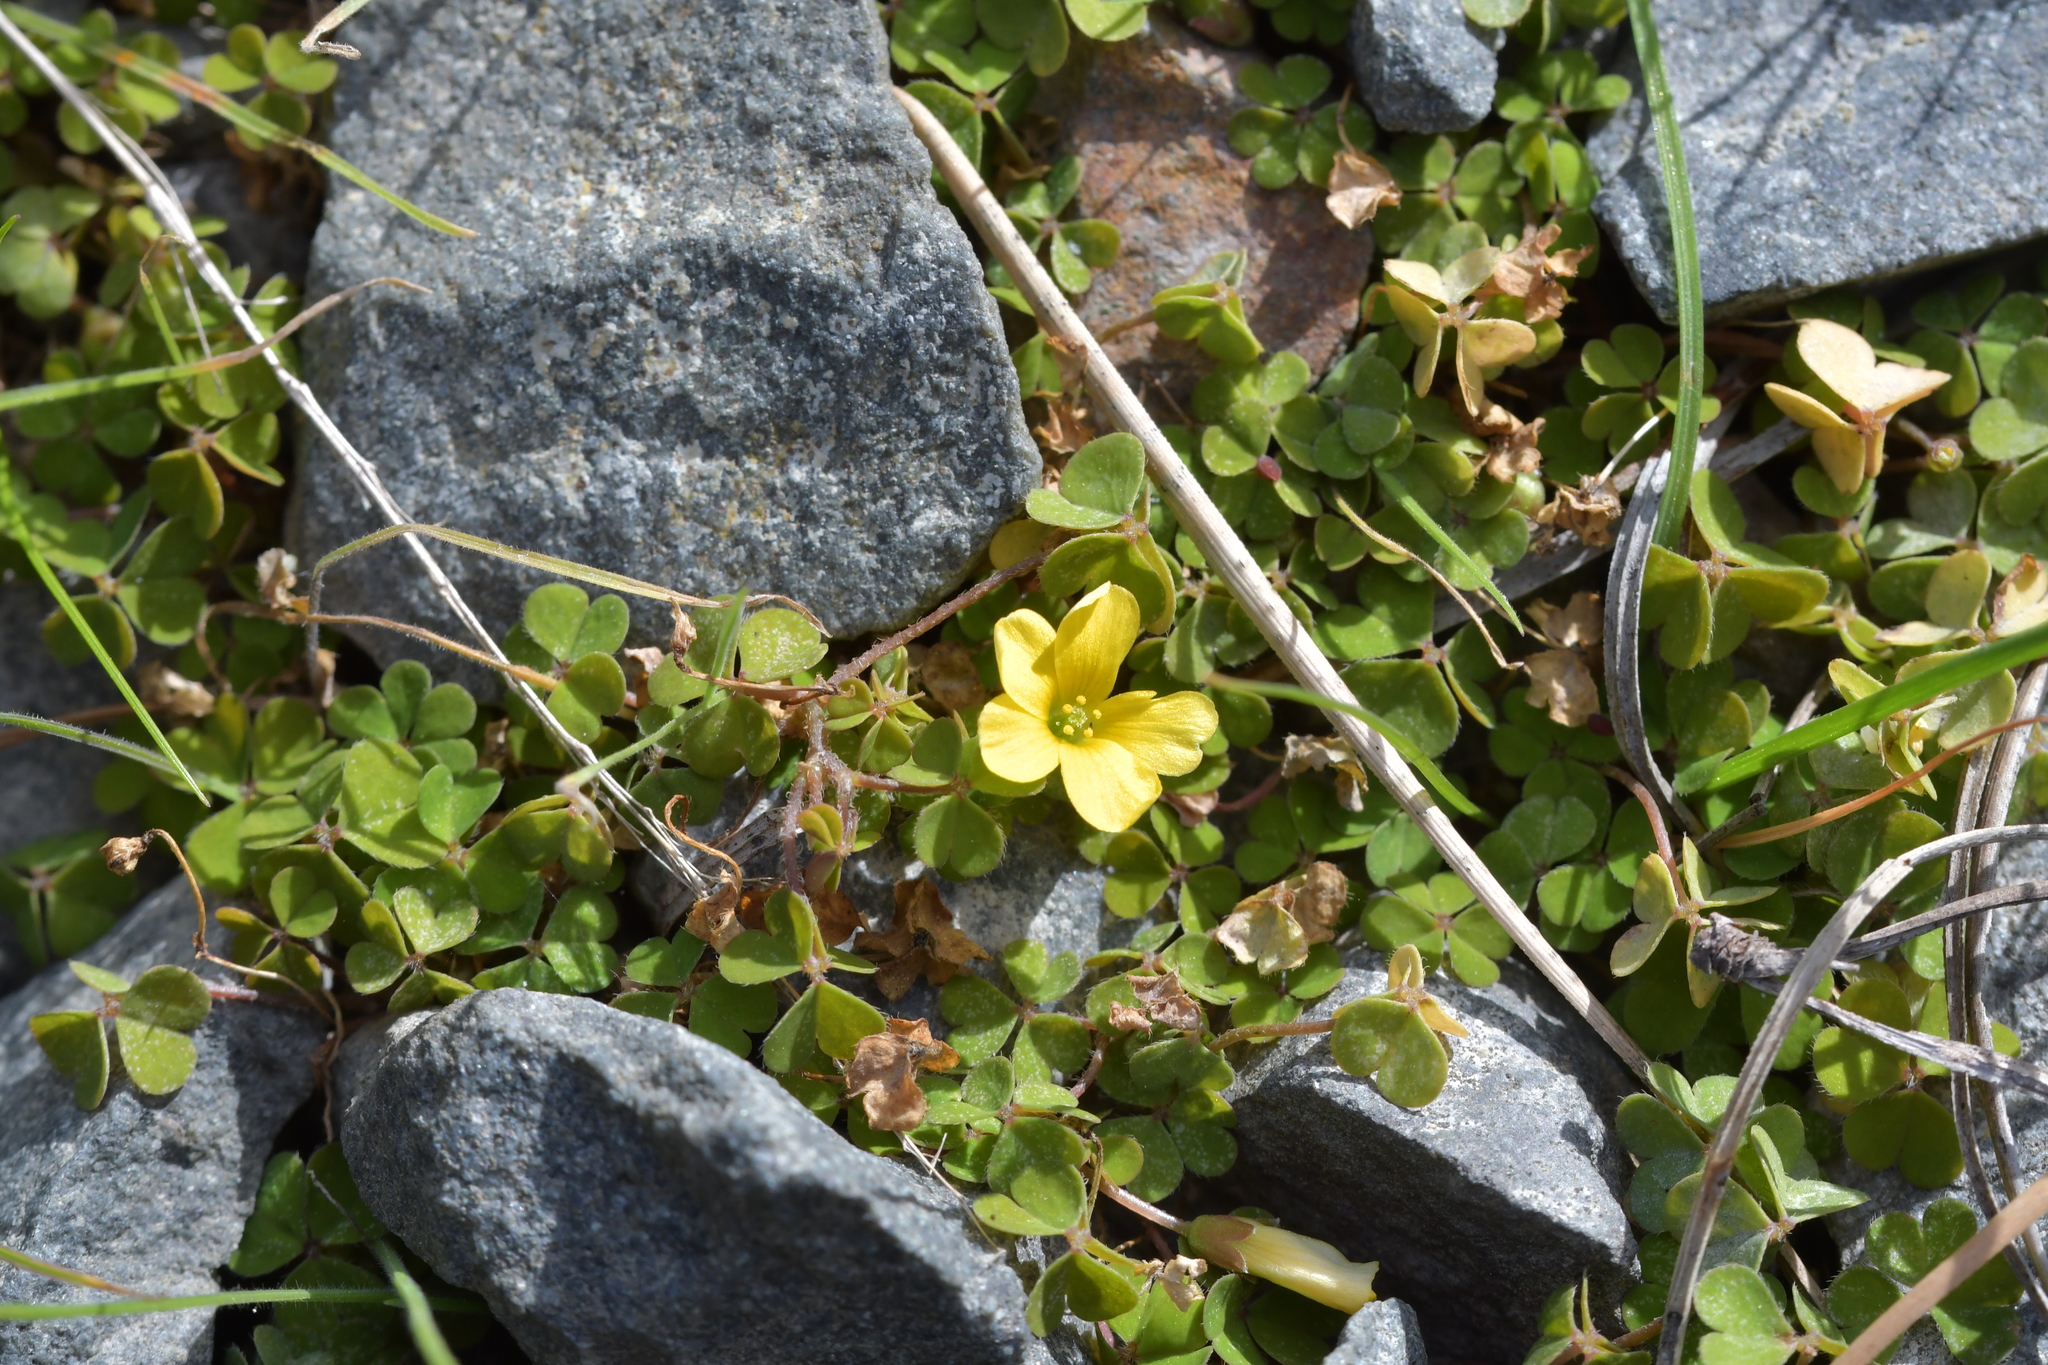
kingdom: Plantae
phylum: Tracheophyta
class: Magnoliopsida
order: Oxalidales
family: Oxalidaceae
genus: Oxalis
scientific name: Oxalis rubens
